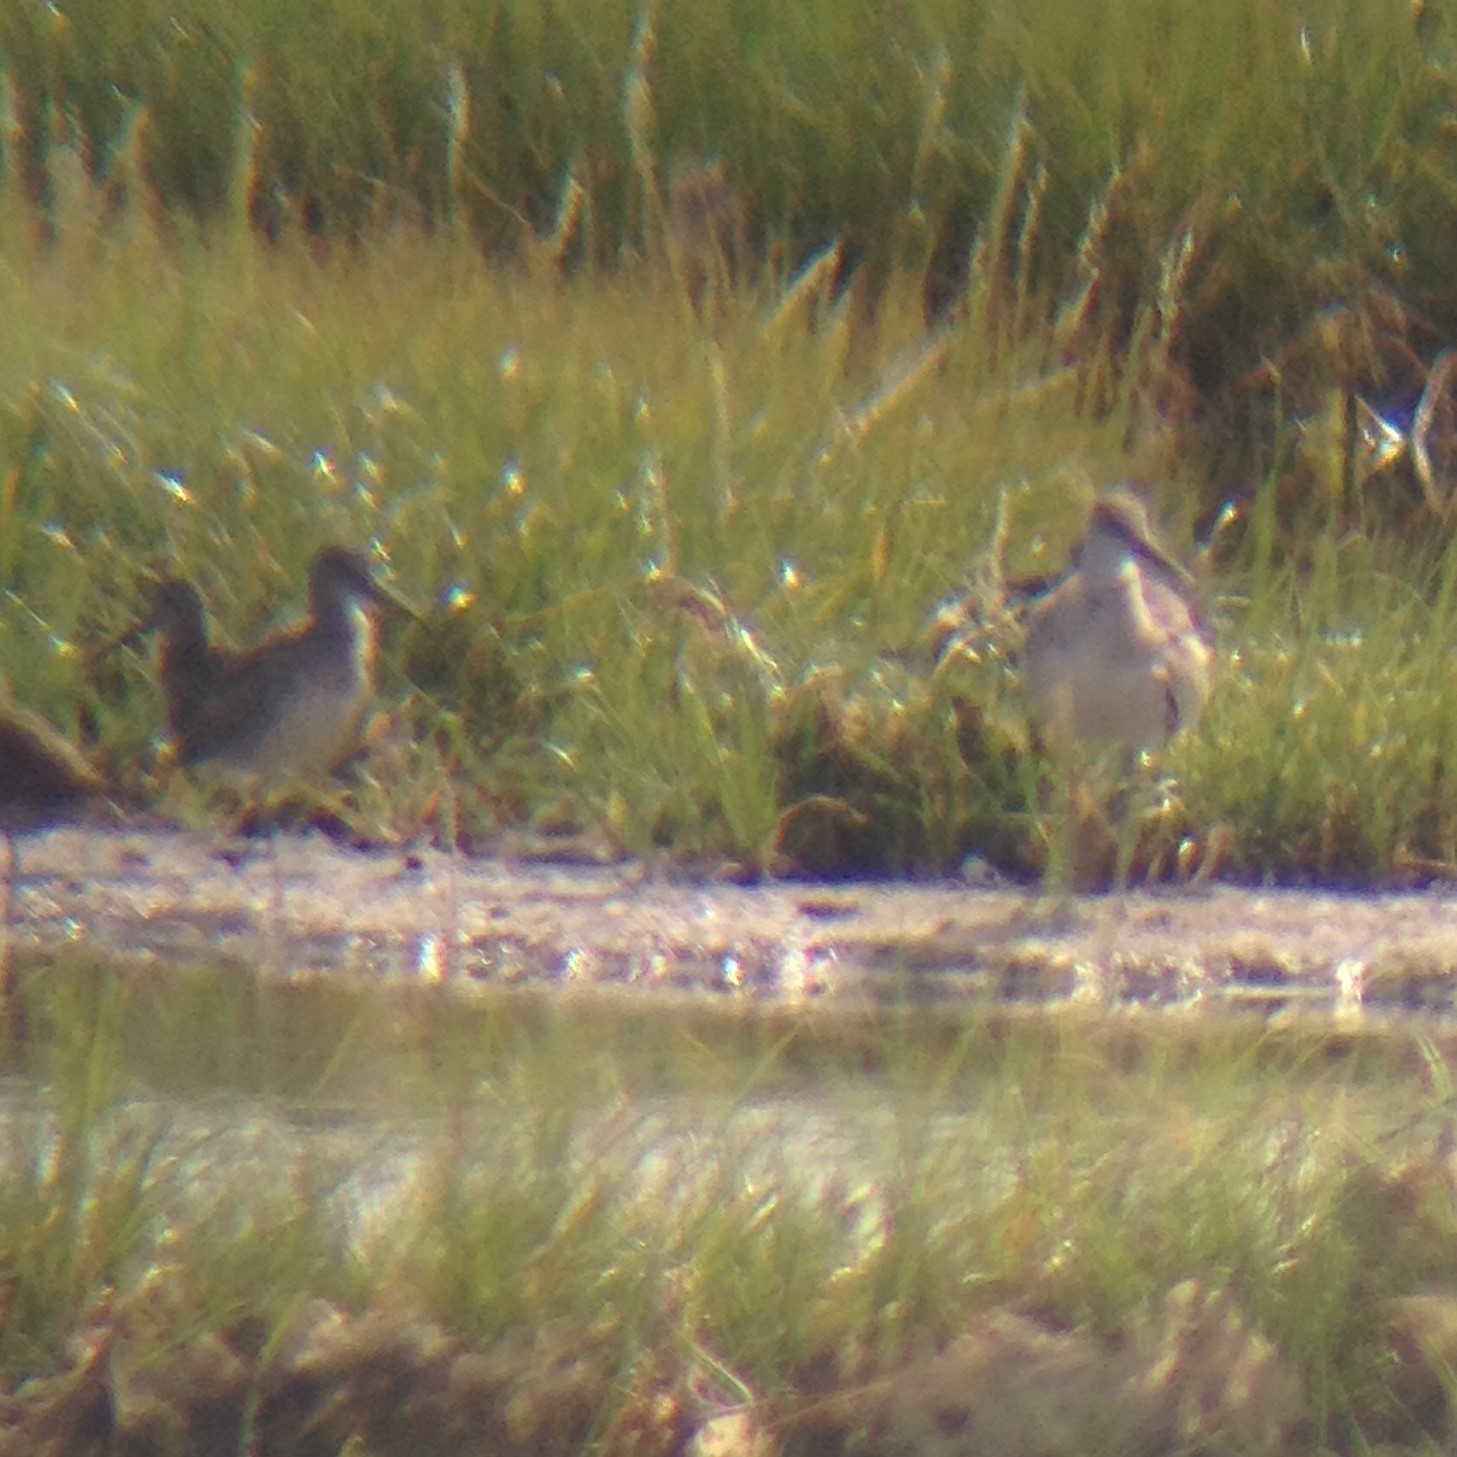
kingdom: Animalia
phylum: Chordata
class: Aves
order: Charadriiformes
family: Scolopacidae
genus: Tringa
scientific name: Tringa semipalmata
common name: Willet
